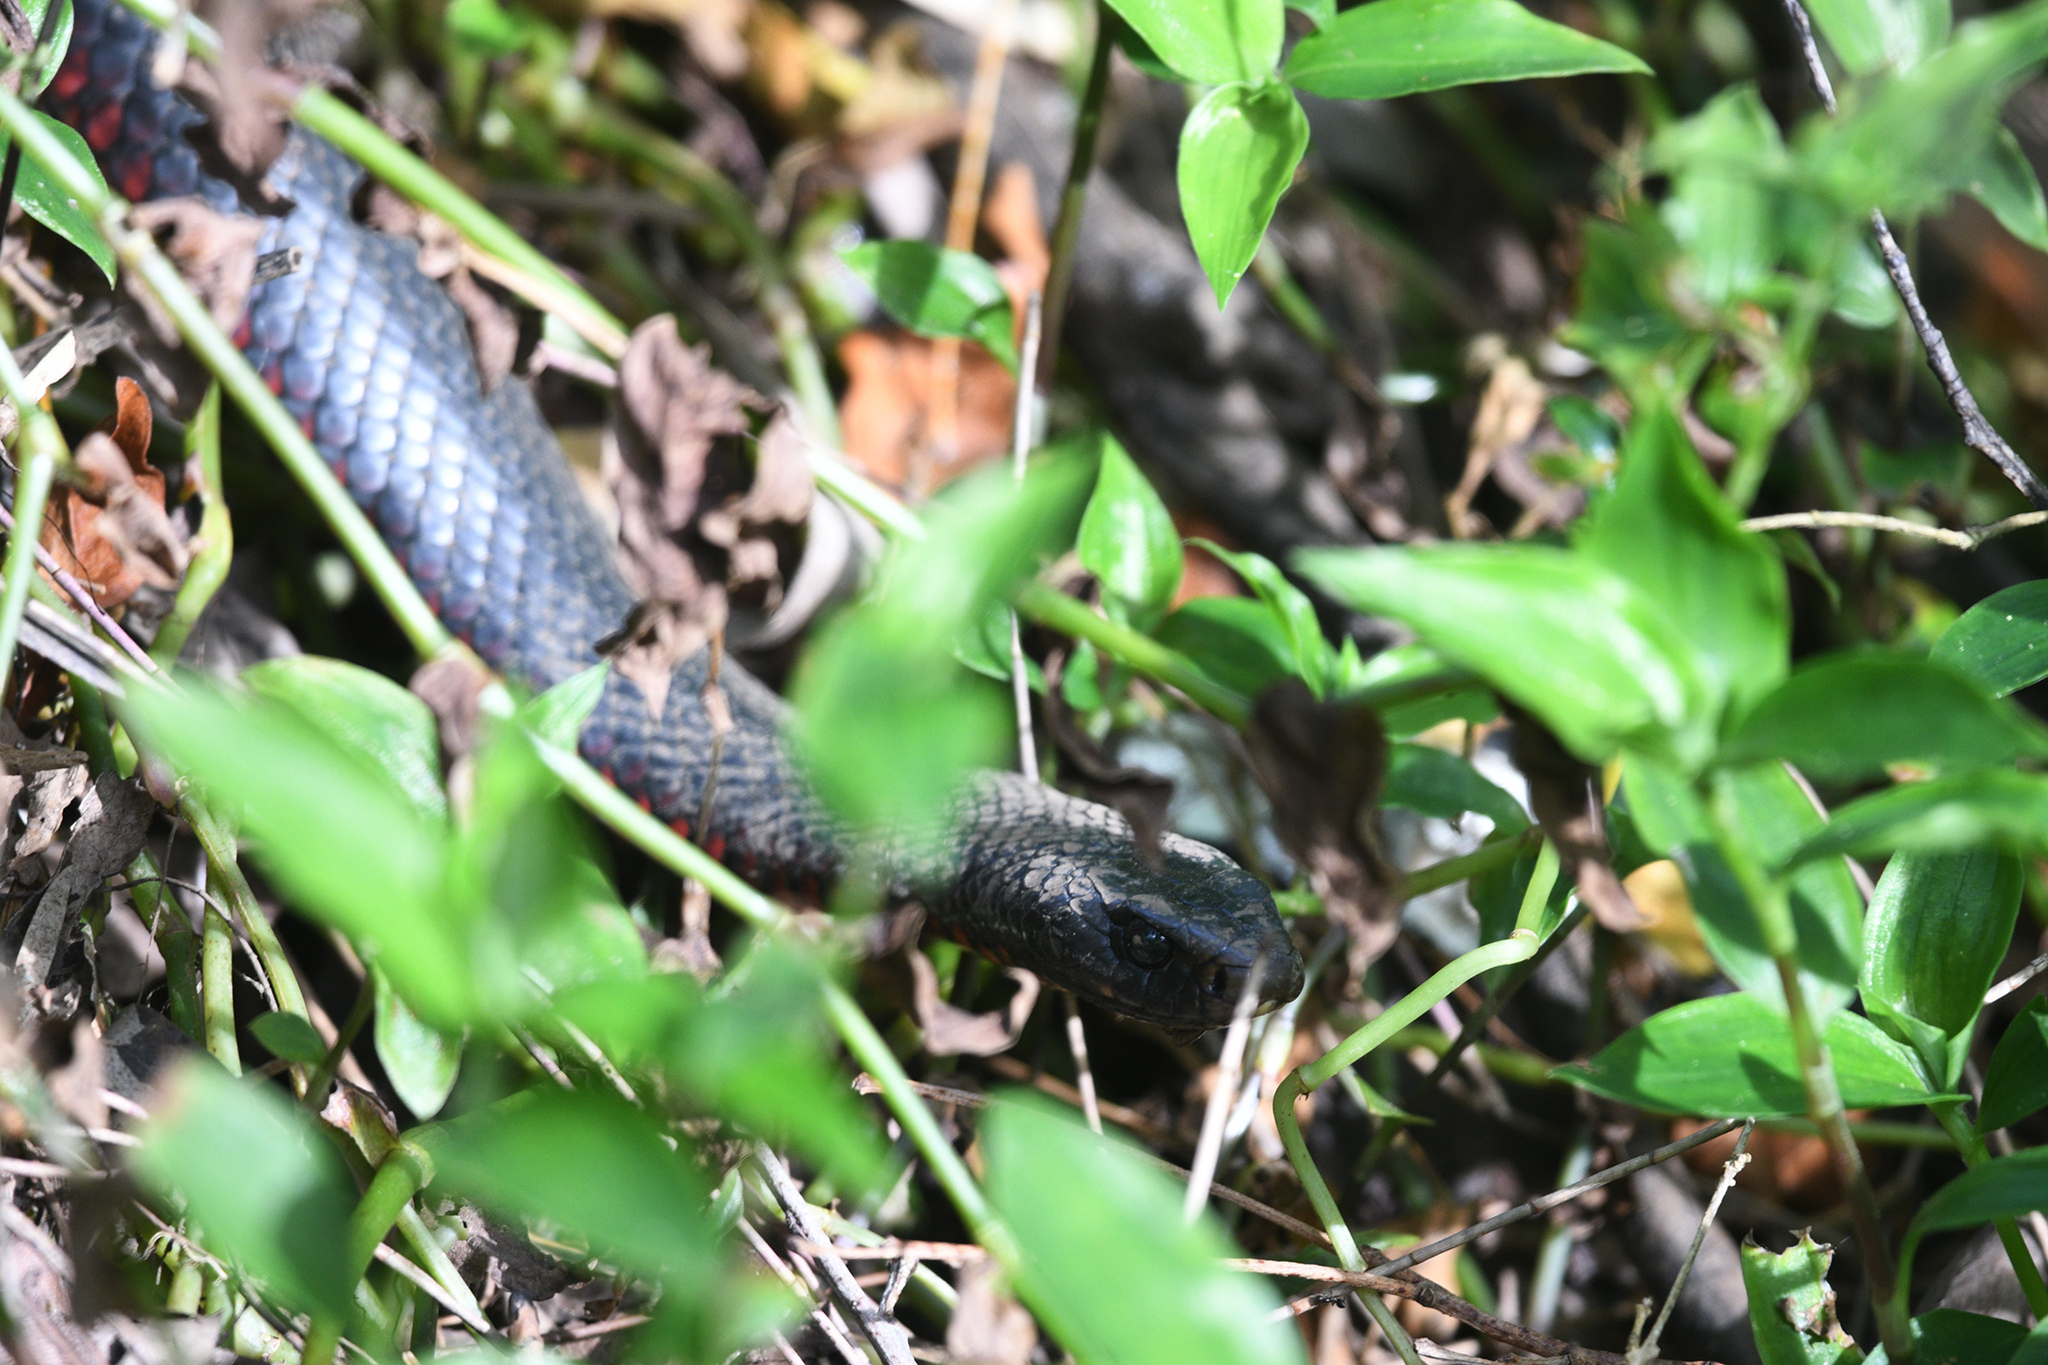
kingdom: Animalia
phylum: Chordata
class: Squamata
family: Elapidae
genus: Pseudechis
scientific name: Pseudechis porphyriacus
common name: Australian black snake
